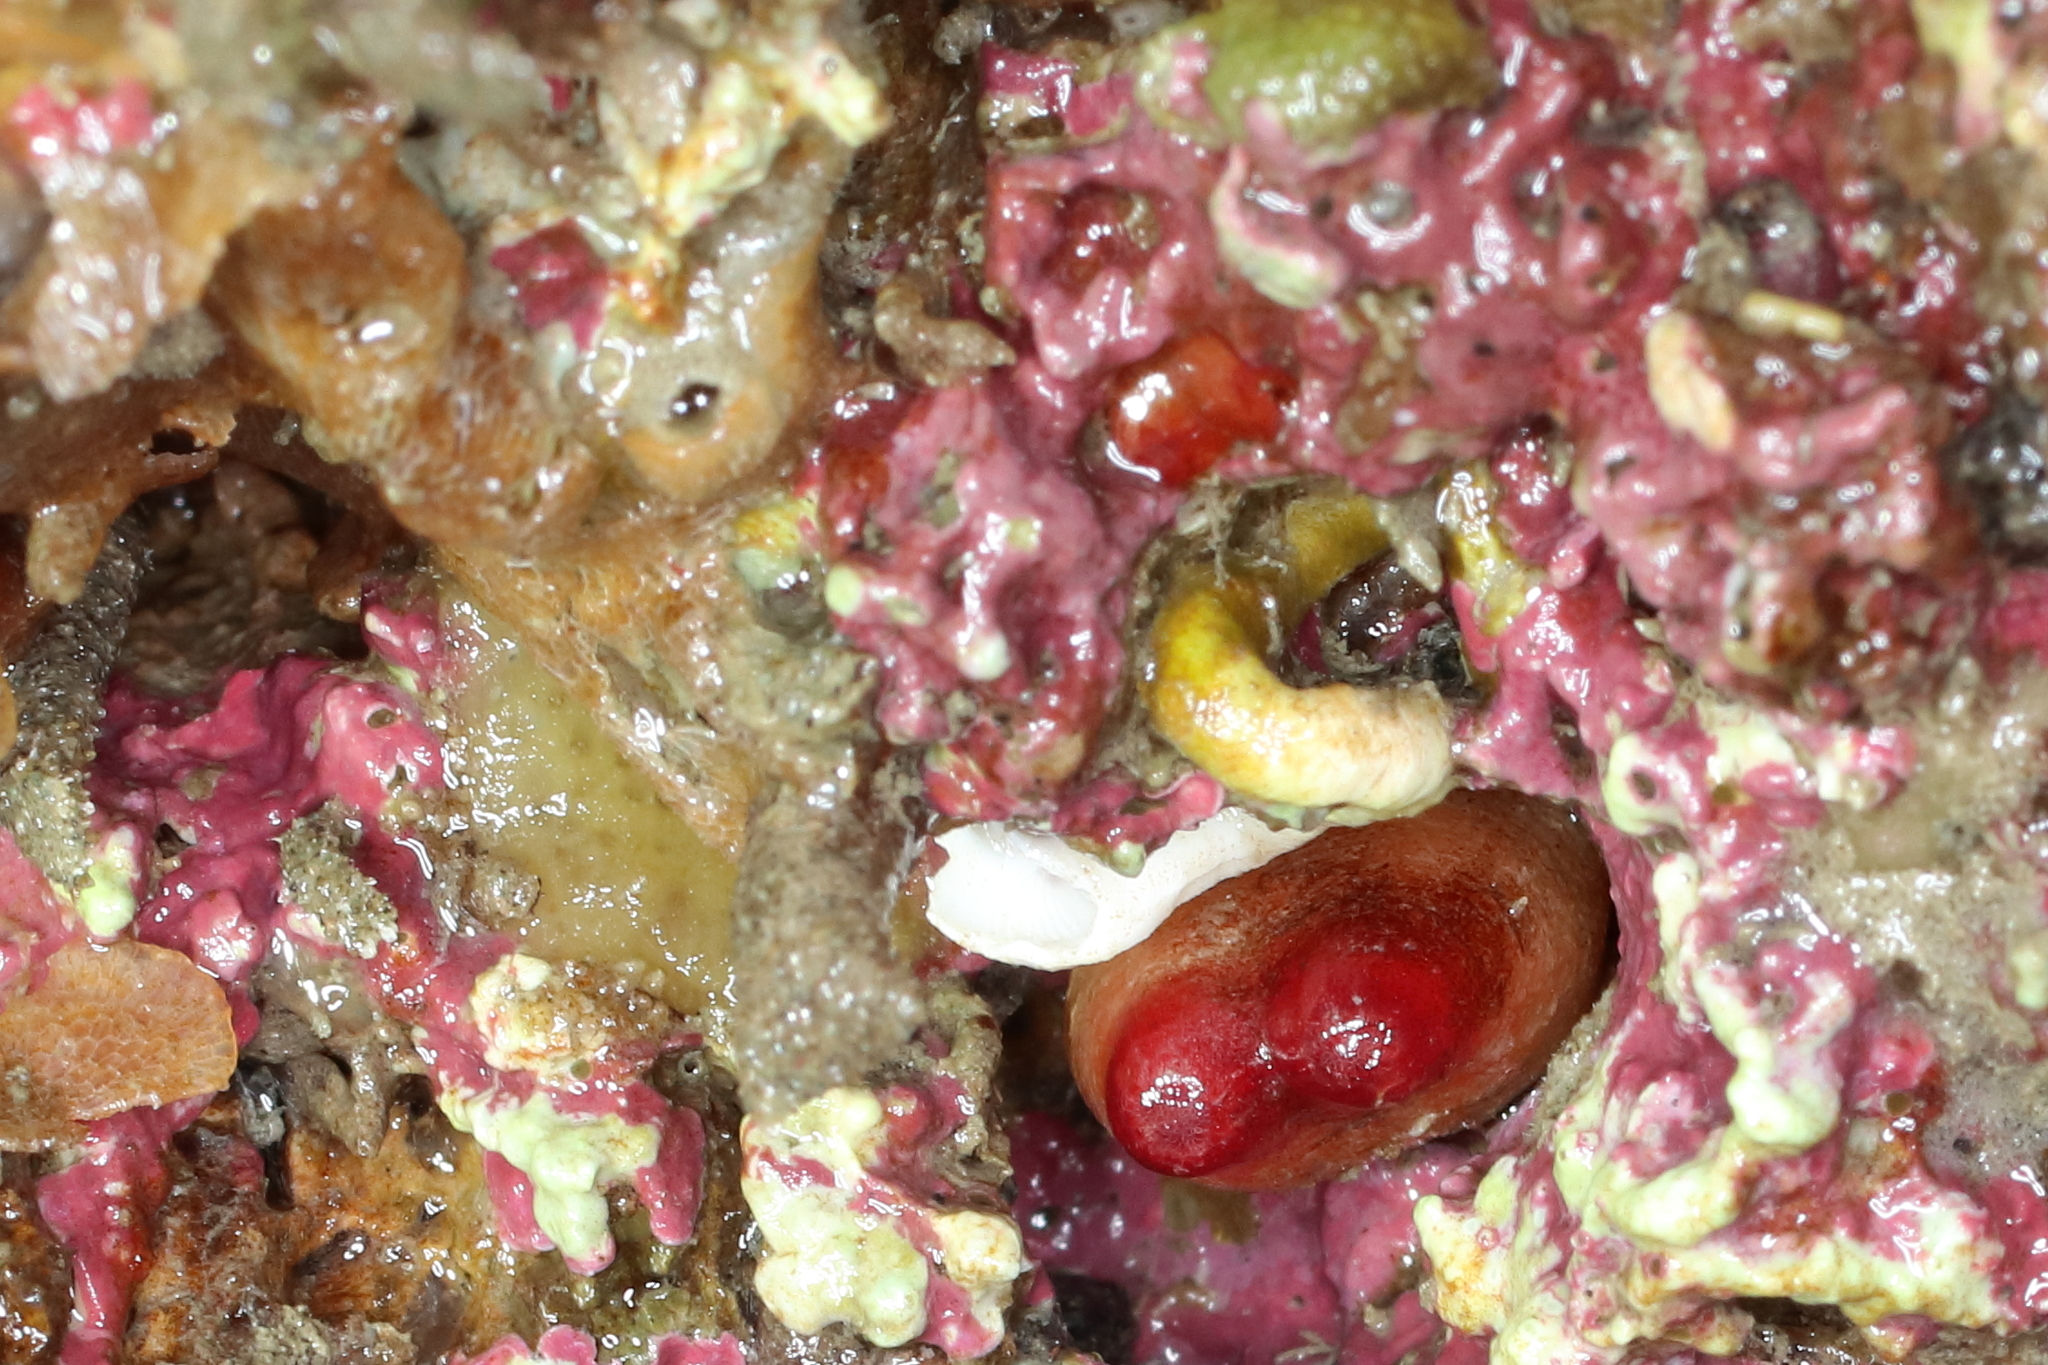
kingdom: Animalia
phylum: Mollusca
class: Bivalvia
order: Adapedonta
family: Hiatellidae
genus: Hiatella
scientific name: Hiatella arctica
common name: Arctic hiatella
